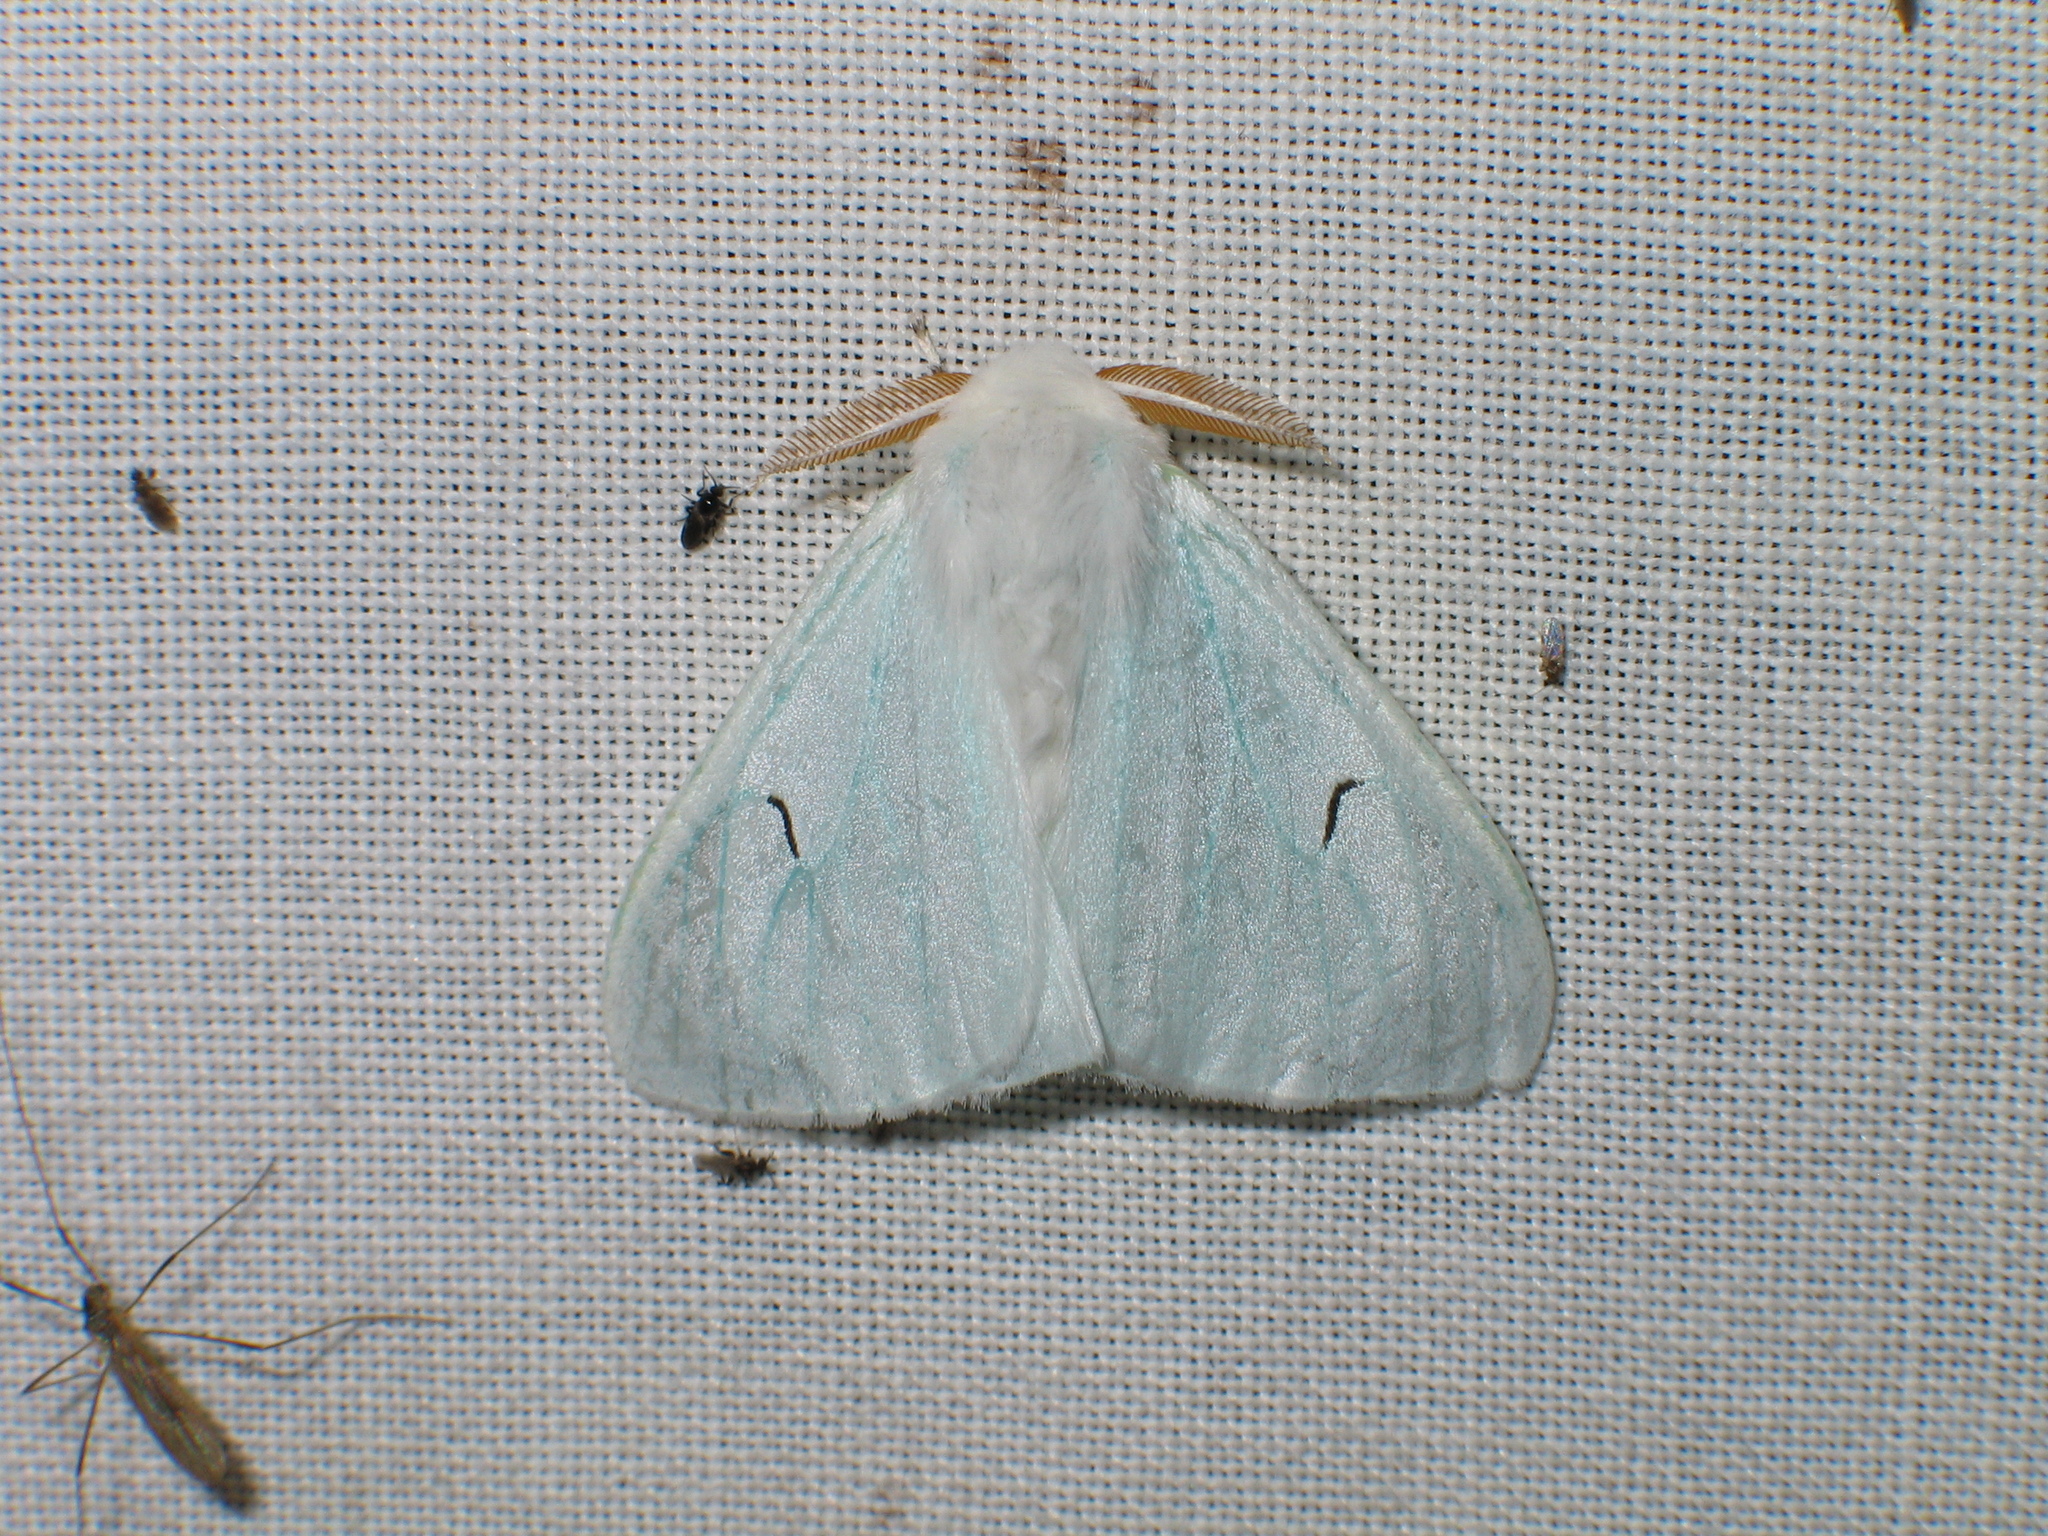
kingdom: Animalia
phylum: Arthropoda
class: Insecta
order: Lepidoptera
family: Erebidae
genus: Arctornis
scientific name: Arctornis l-nigrum
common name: Black v moth
